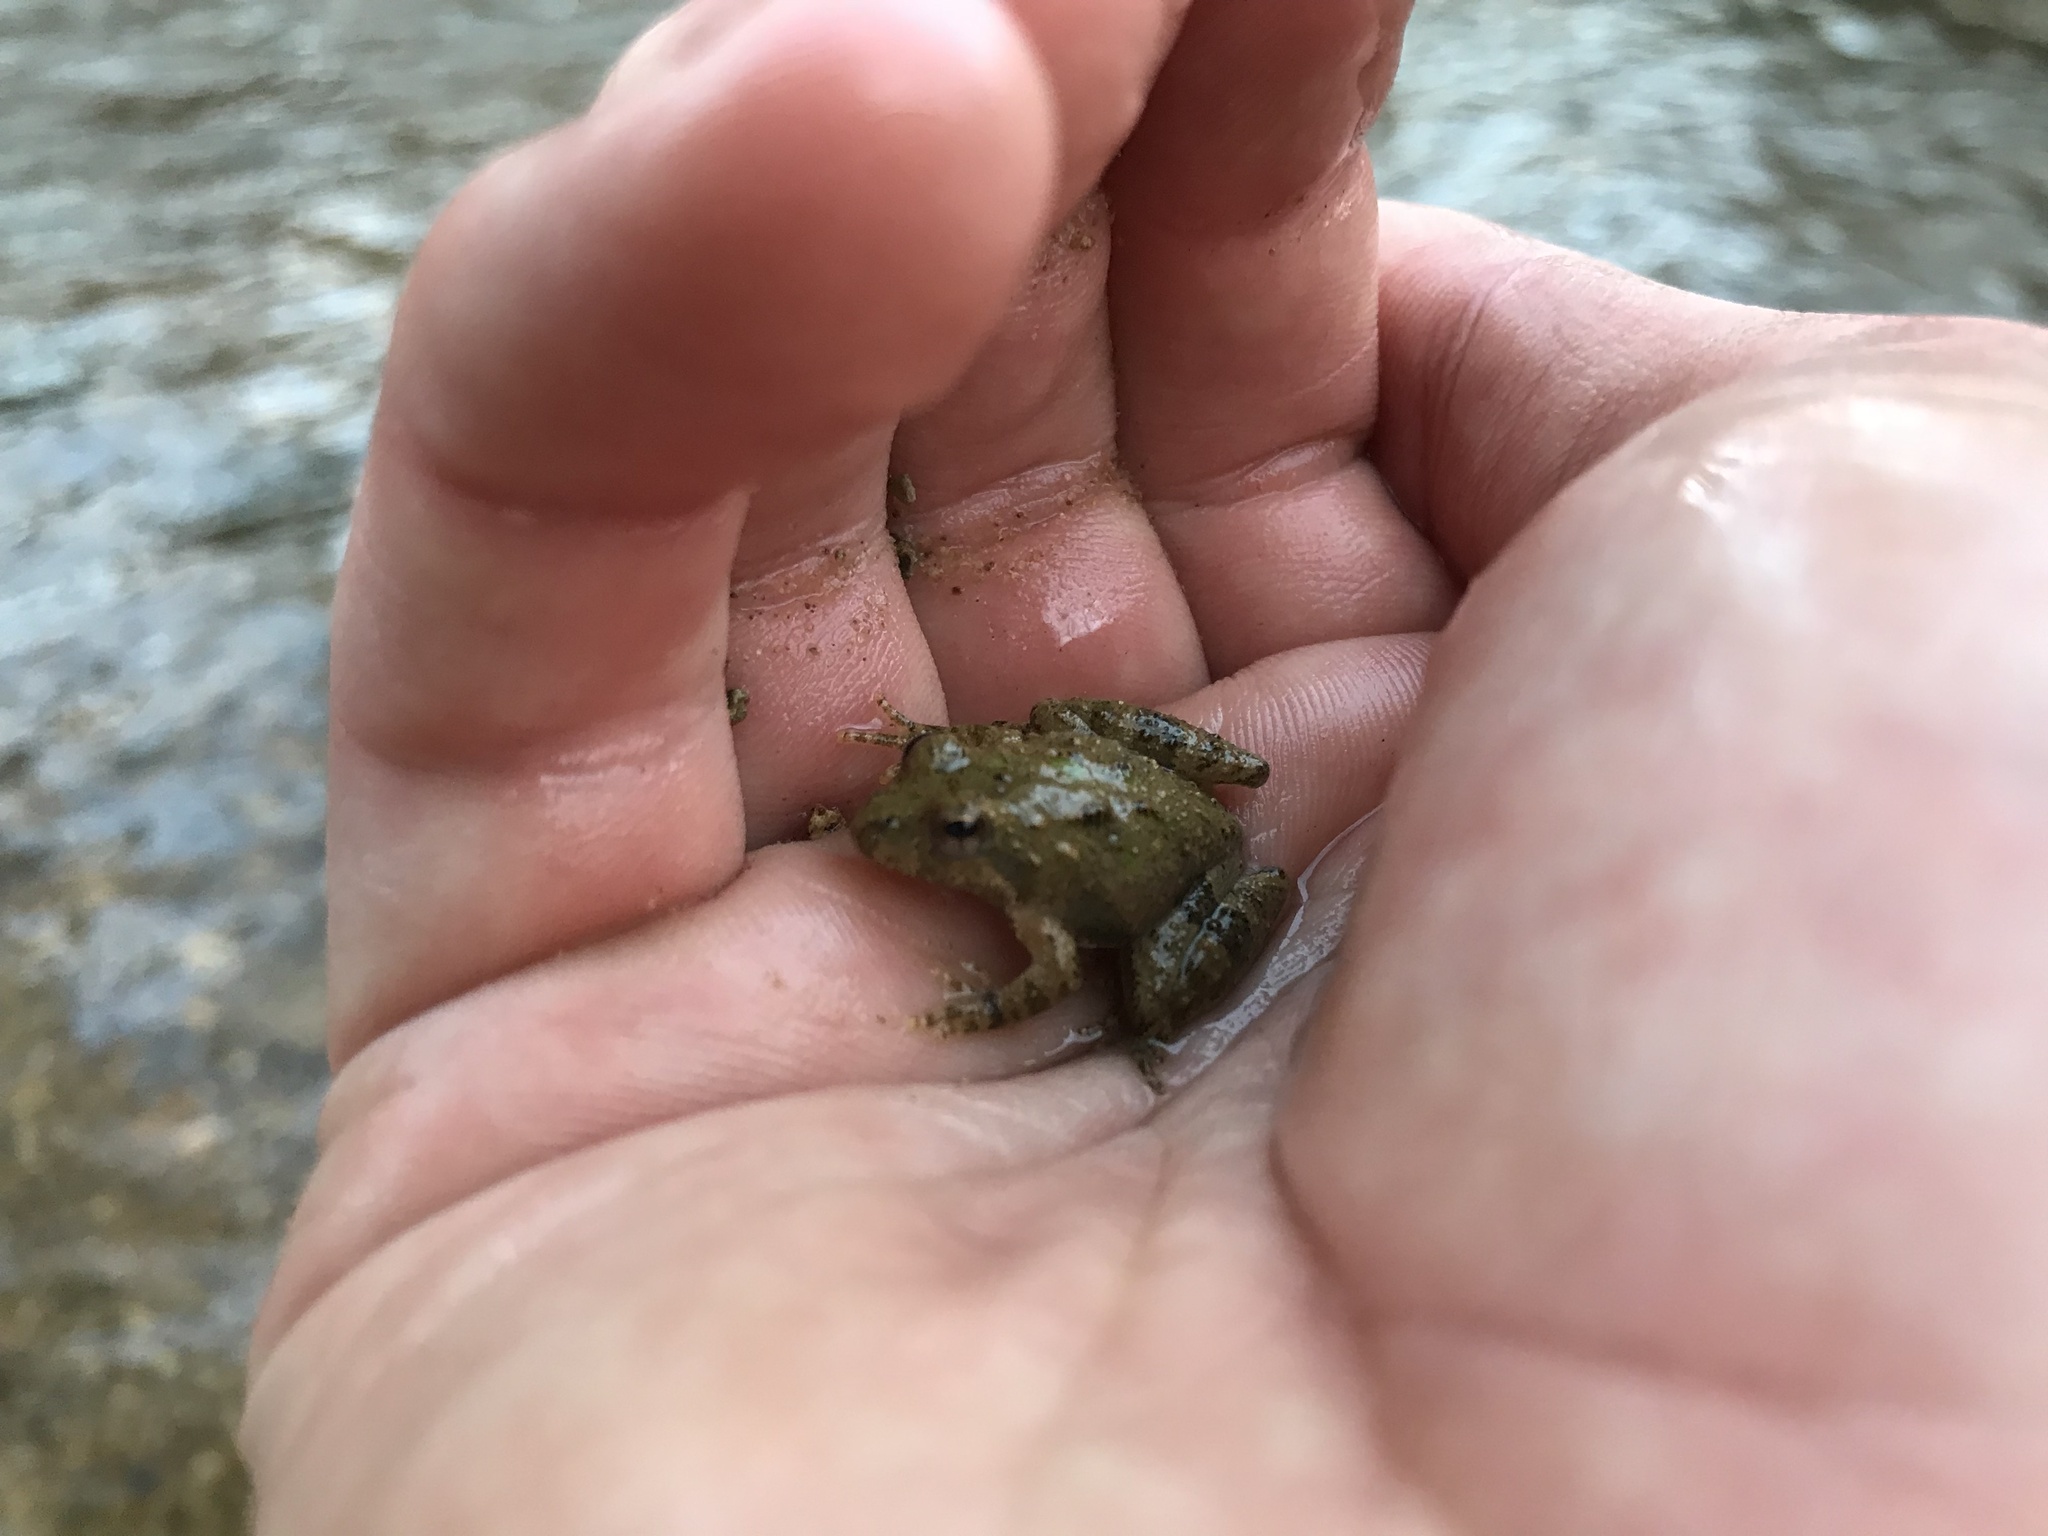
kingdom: Animalia
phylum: Chordata
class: Amphibia
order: Anura
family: Hylidae
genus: Acris
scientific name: Acris crepitans
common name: Northern cricket frog
